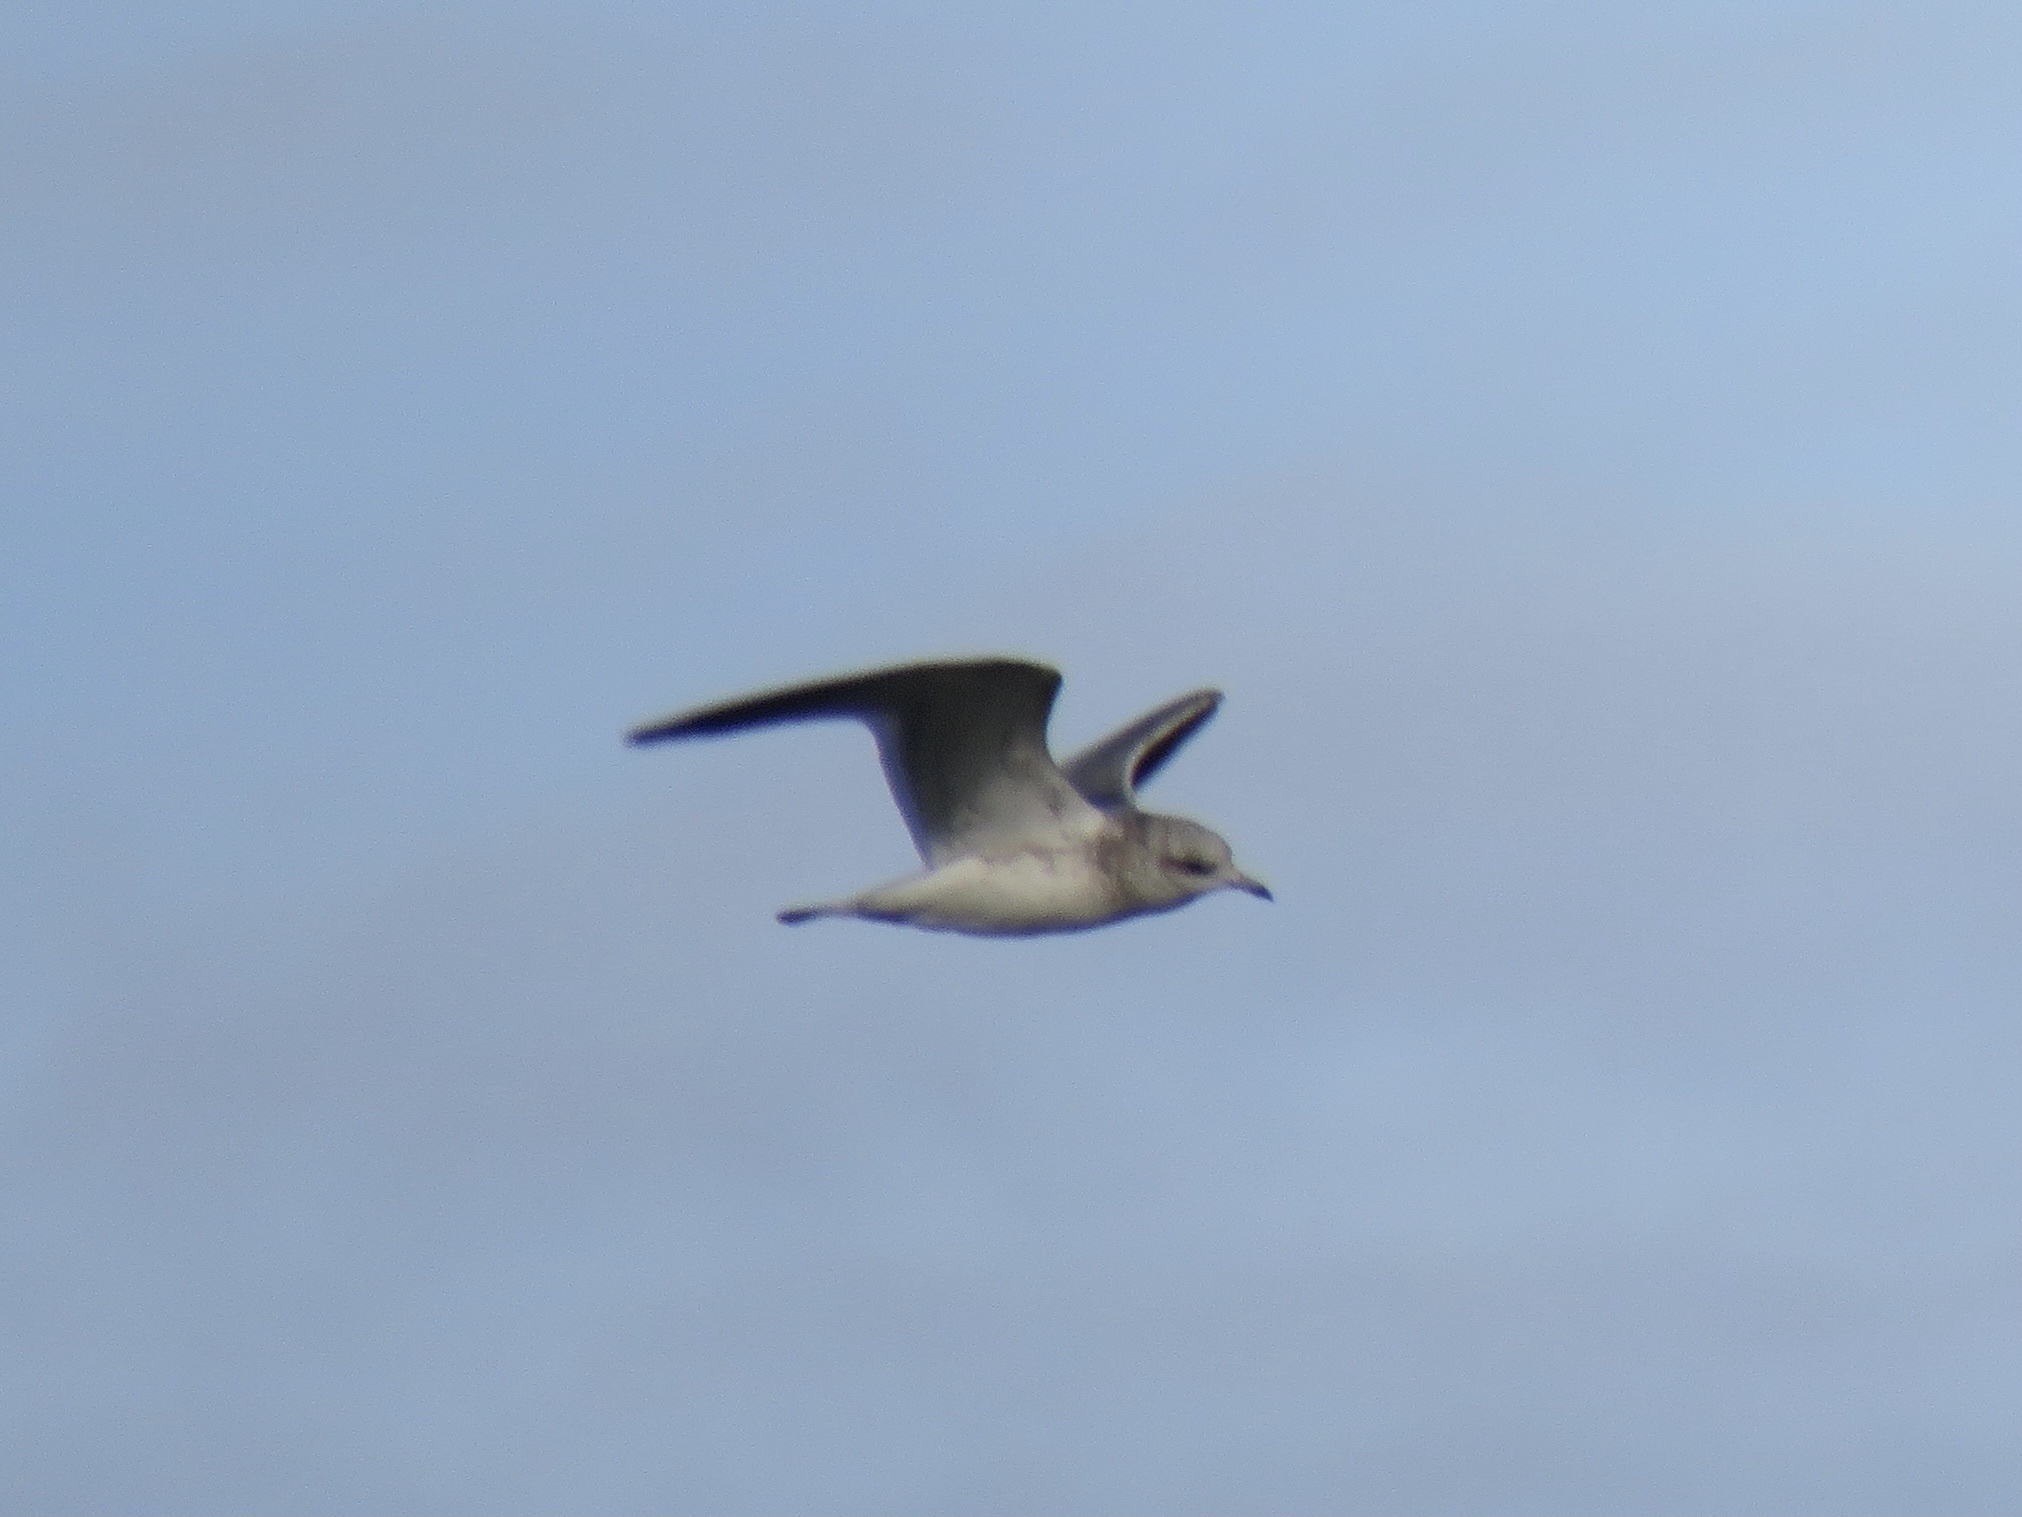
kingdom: Animalia
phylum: Chordata
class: Aves
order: Charadriiformes
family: Laridae
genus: Larus
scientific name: Larus brachyrhynchus
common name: Short-billed gull
